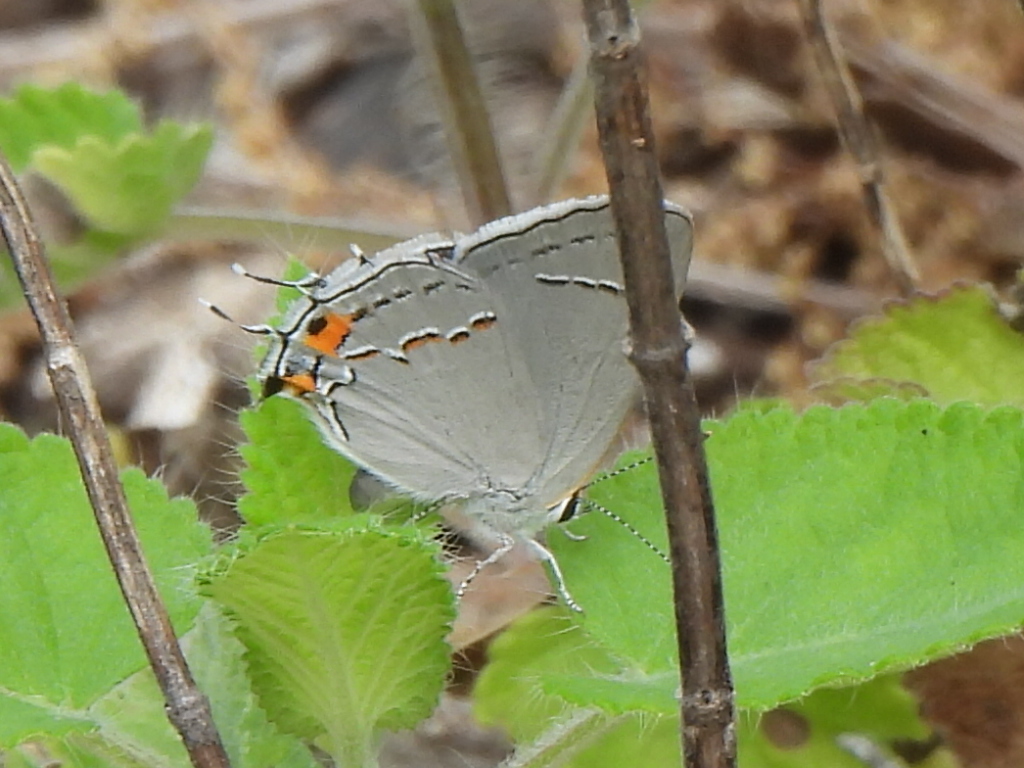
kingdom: Animalia
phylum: Arthropoda
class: Insecta
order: Lepidoptera
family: Lycaenidae
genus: Strymon
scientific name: Strymon melinus
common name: Gray hairstreak
